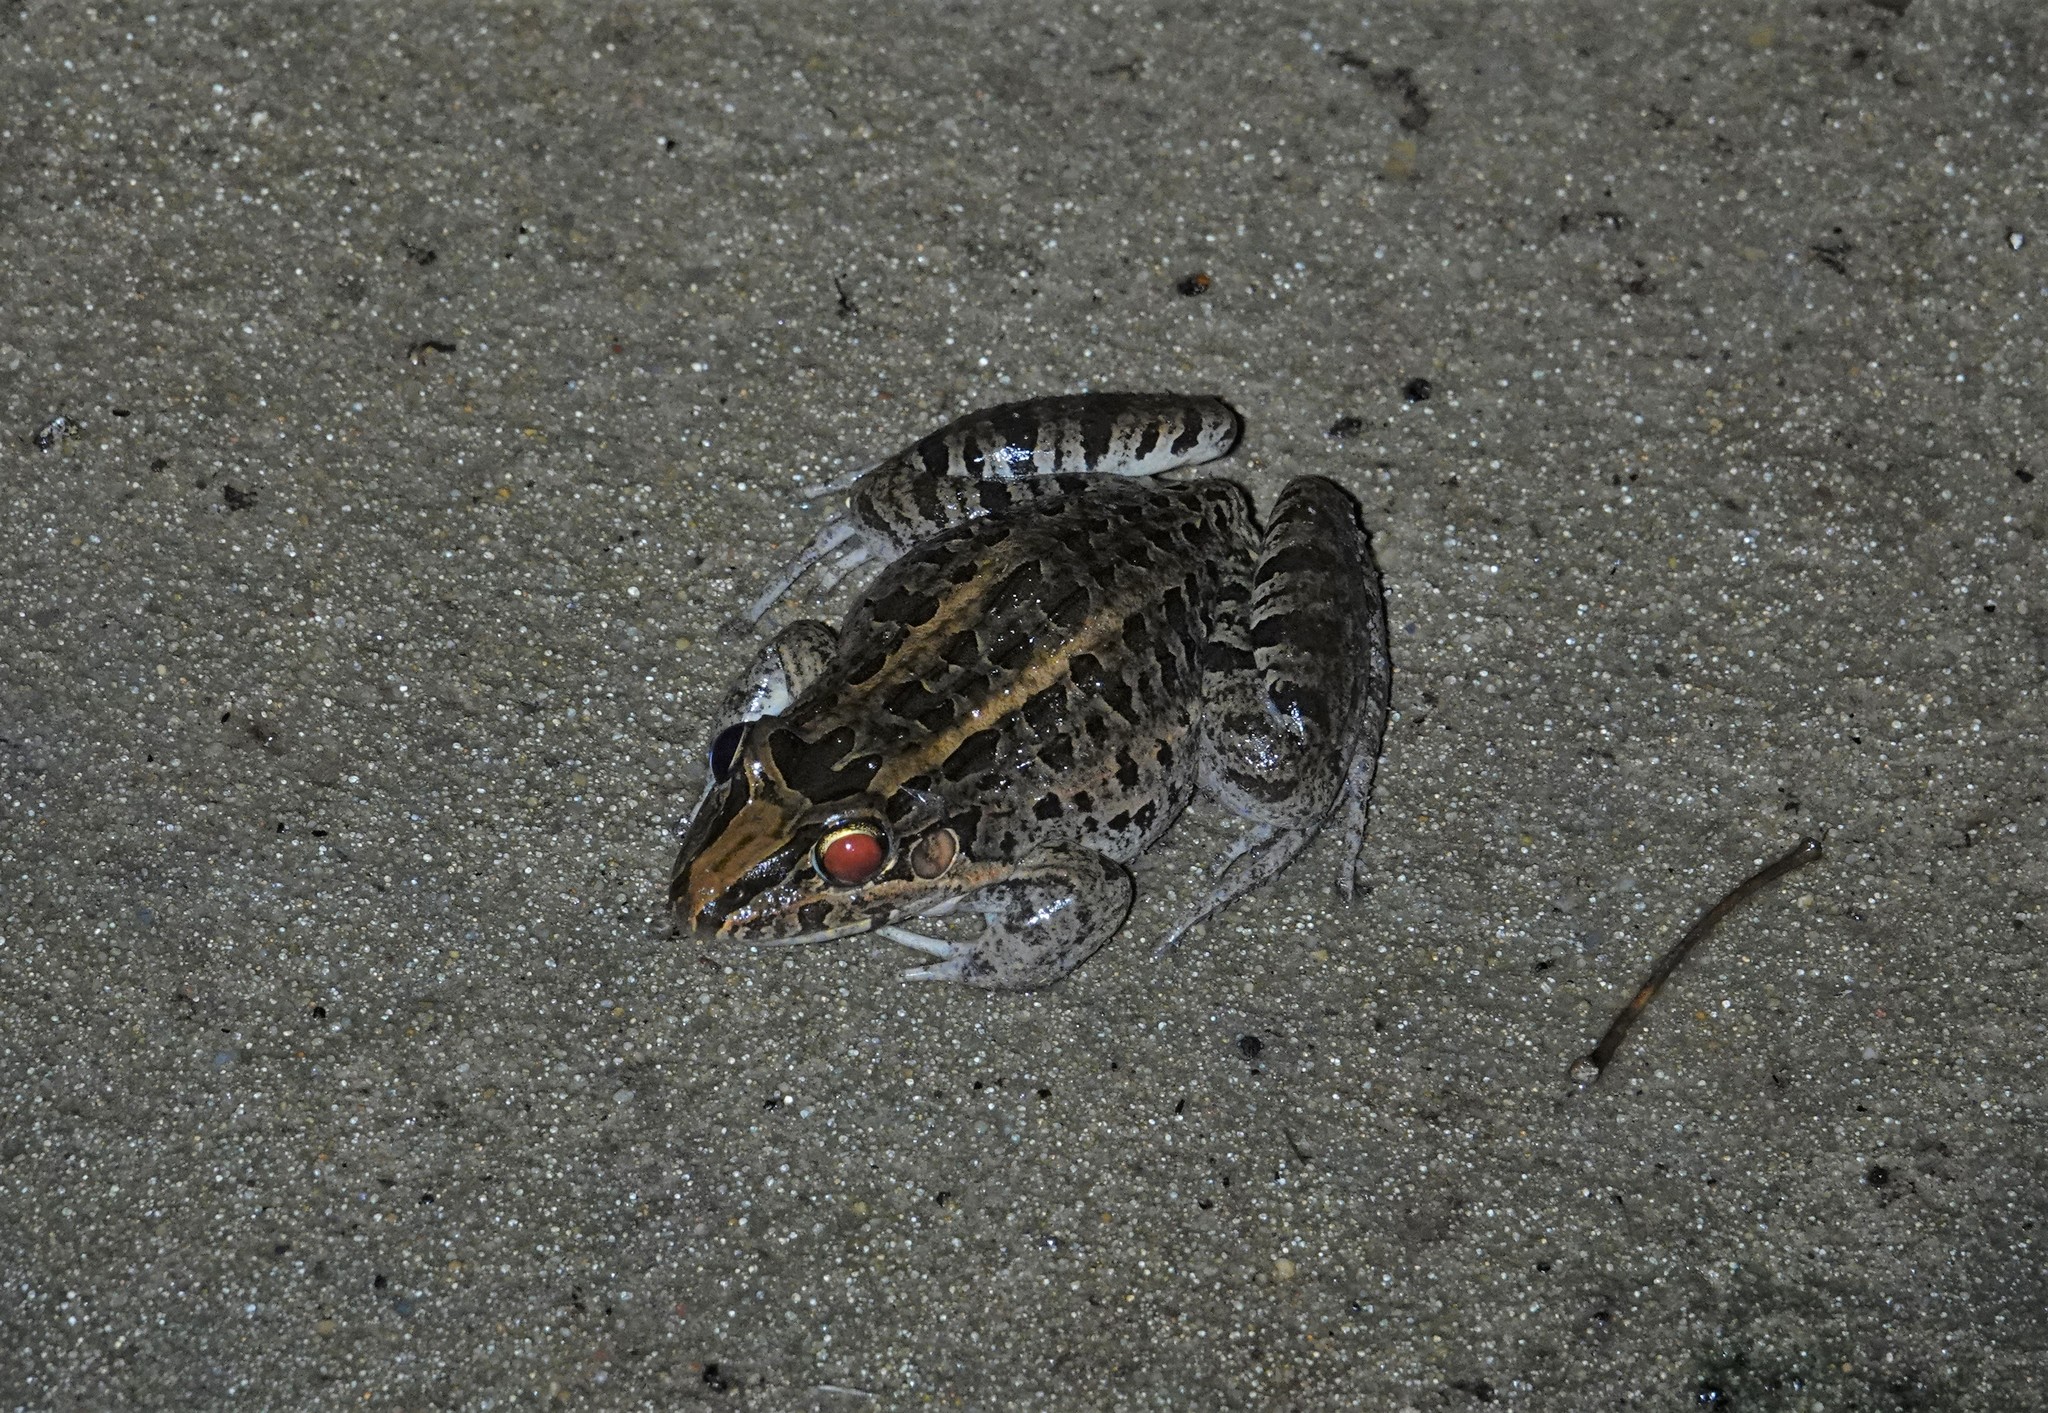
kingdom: Animalia
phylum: Chordata
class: Amphibia
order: Anura
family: Leptodactylidae
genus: Leptodactylus
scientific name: Leptodactylus macrosternum
